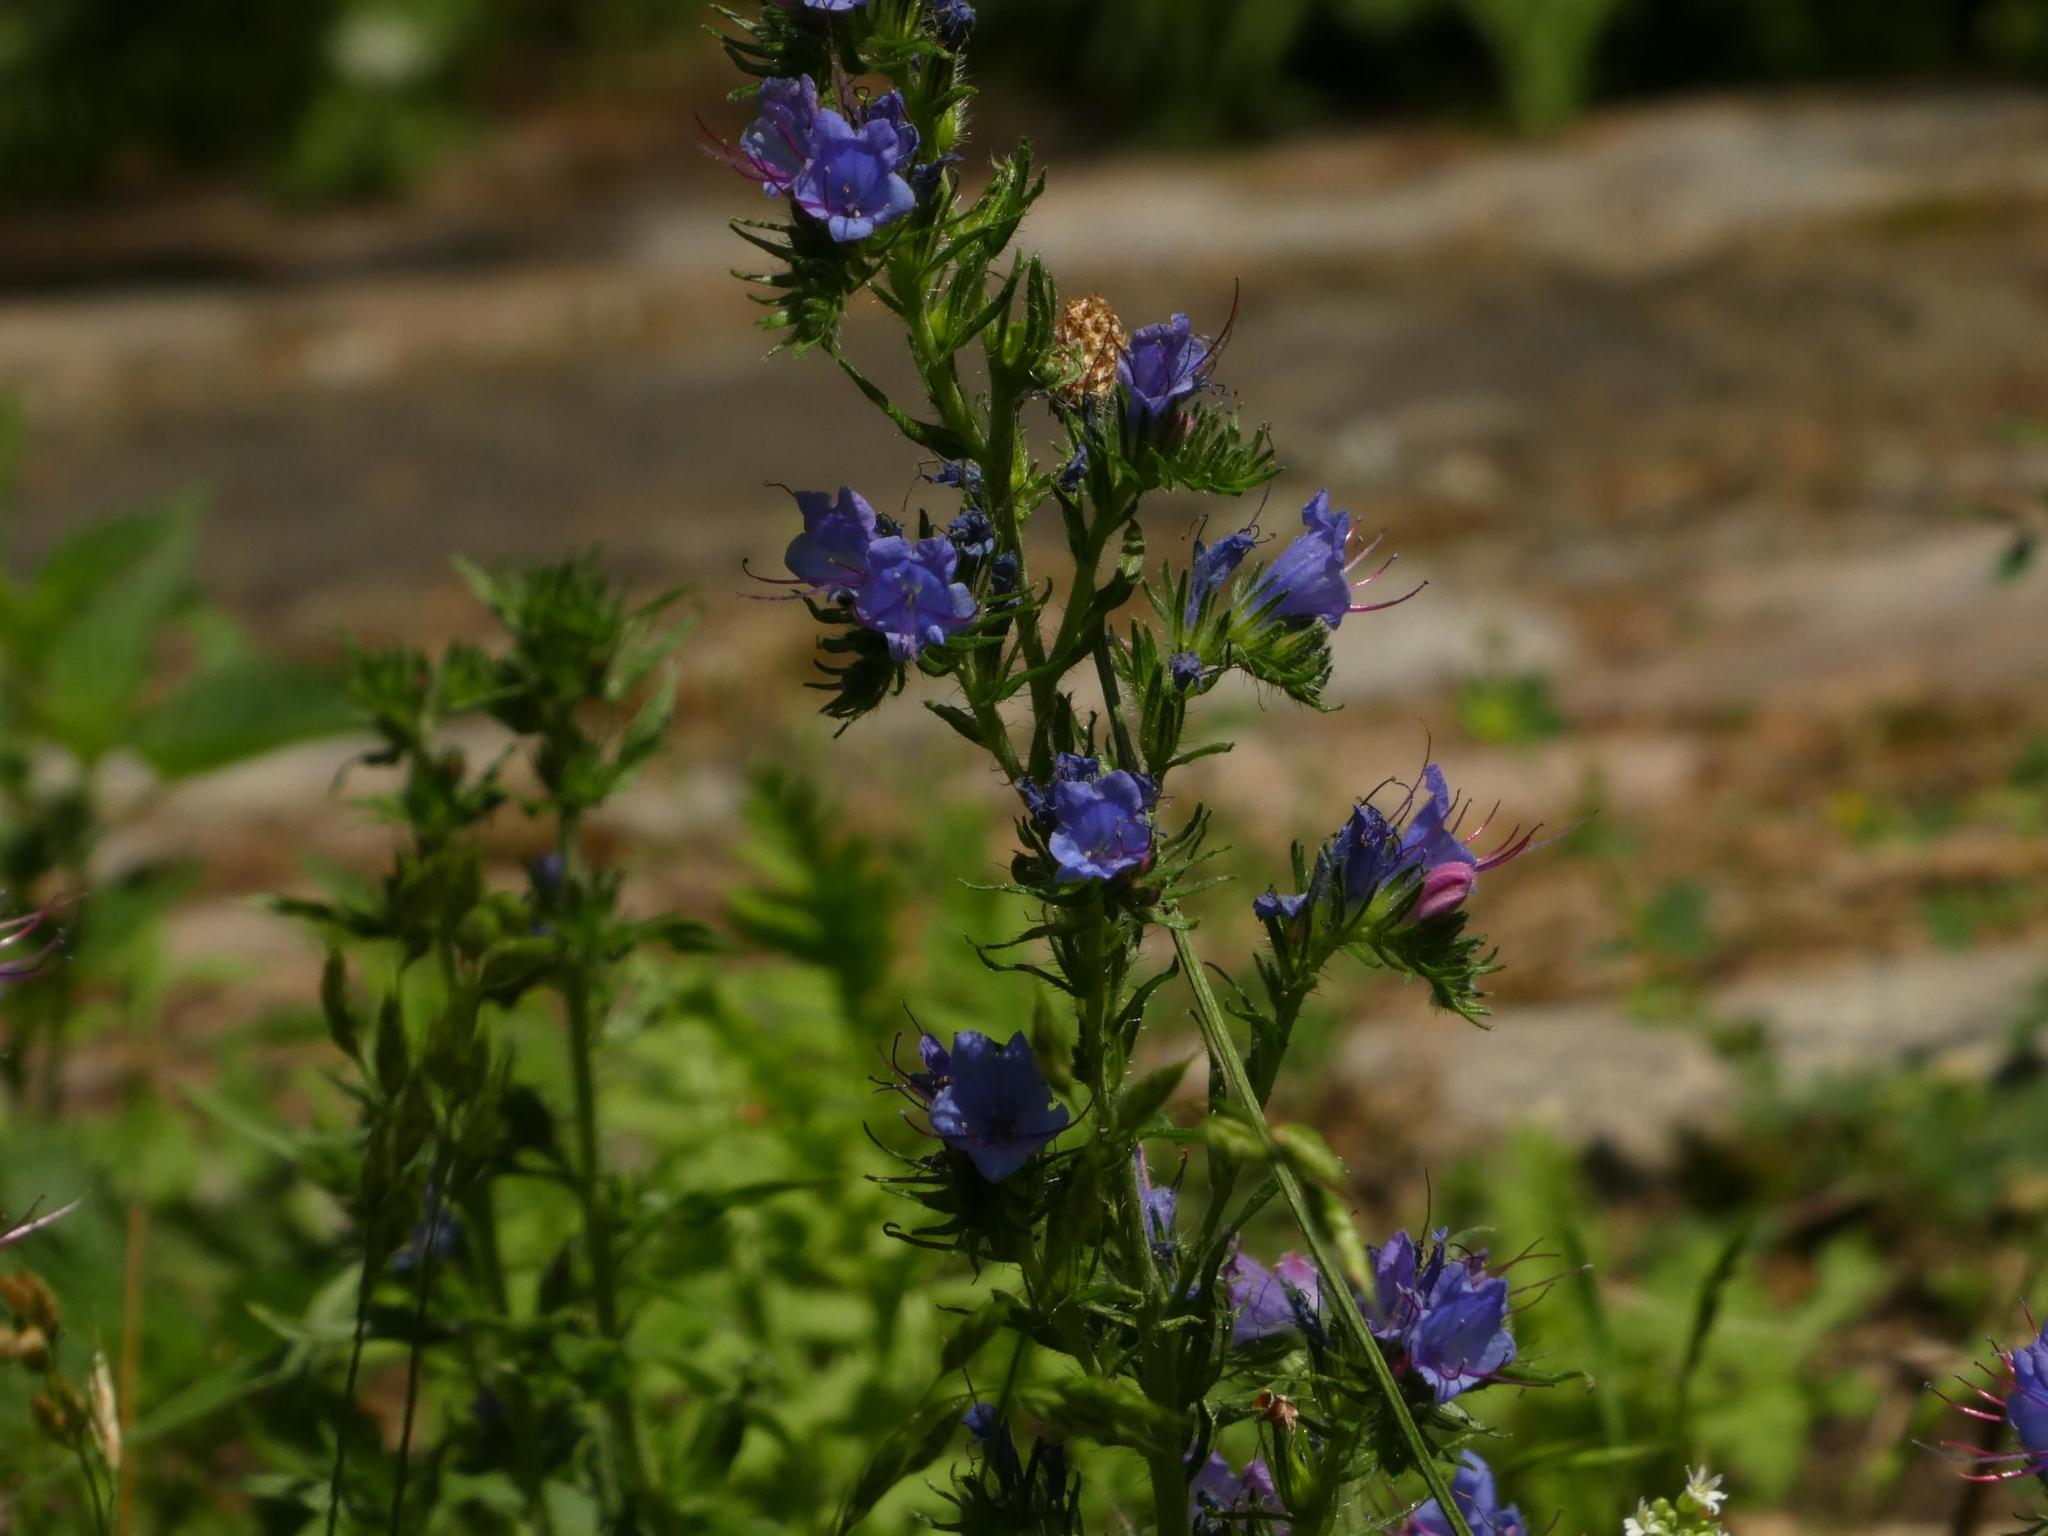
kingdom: Plantae
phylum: Tracheophyta
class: Magnoliopsida
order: Boraginales
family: Boraginaceae
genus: Echium
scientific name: Echium vulgare
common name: Common viper's bugloss
